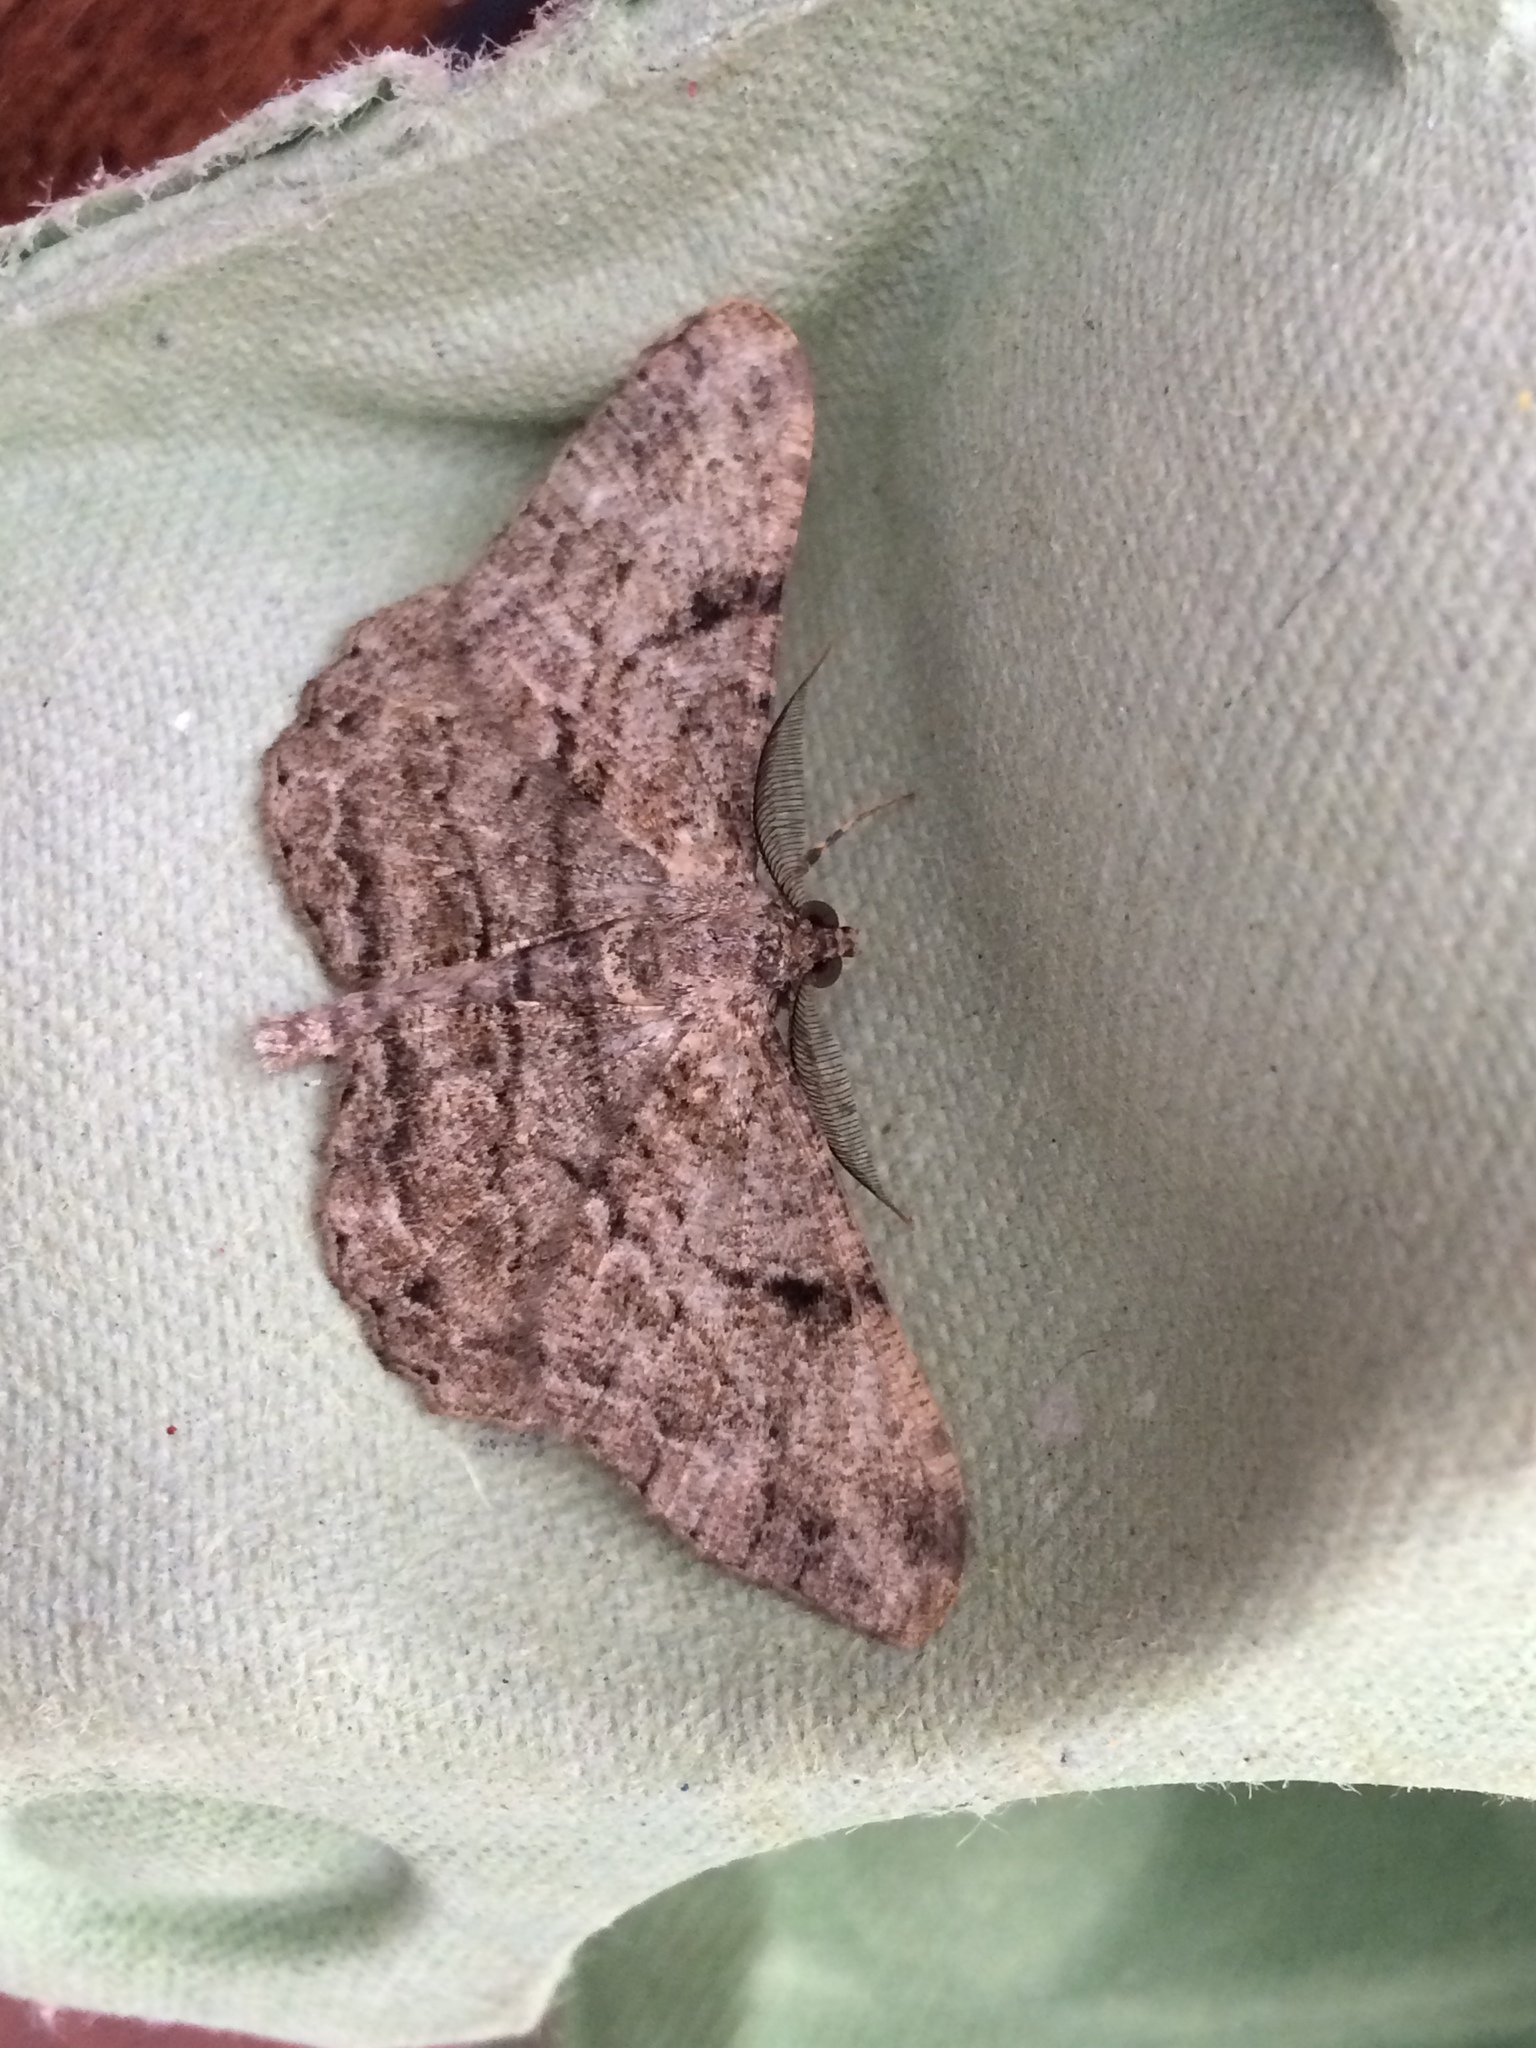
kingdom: Animalia
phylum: Arthropoda
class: Insecta
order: Lepidoptera
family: Geometridae
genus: Peribatodes
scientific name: Peribatodes rhomboidaria
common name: Willow beauty
